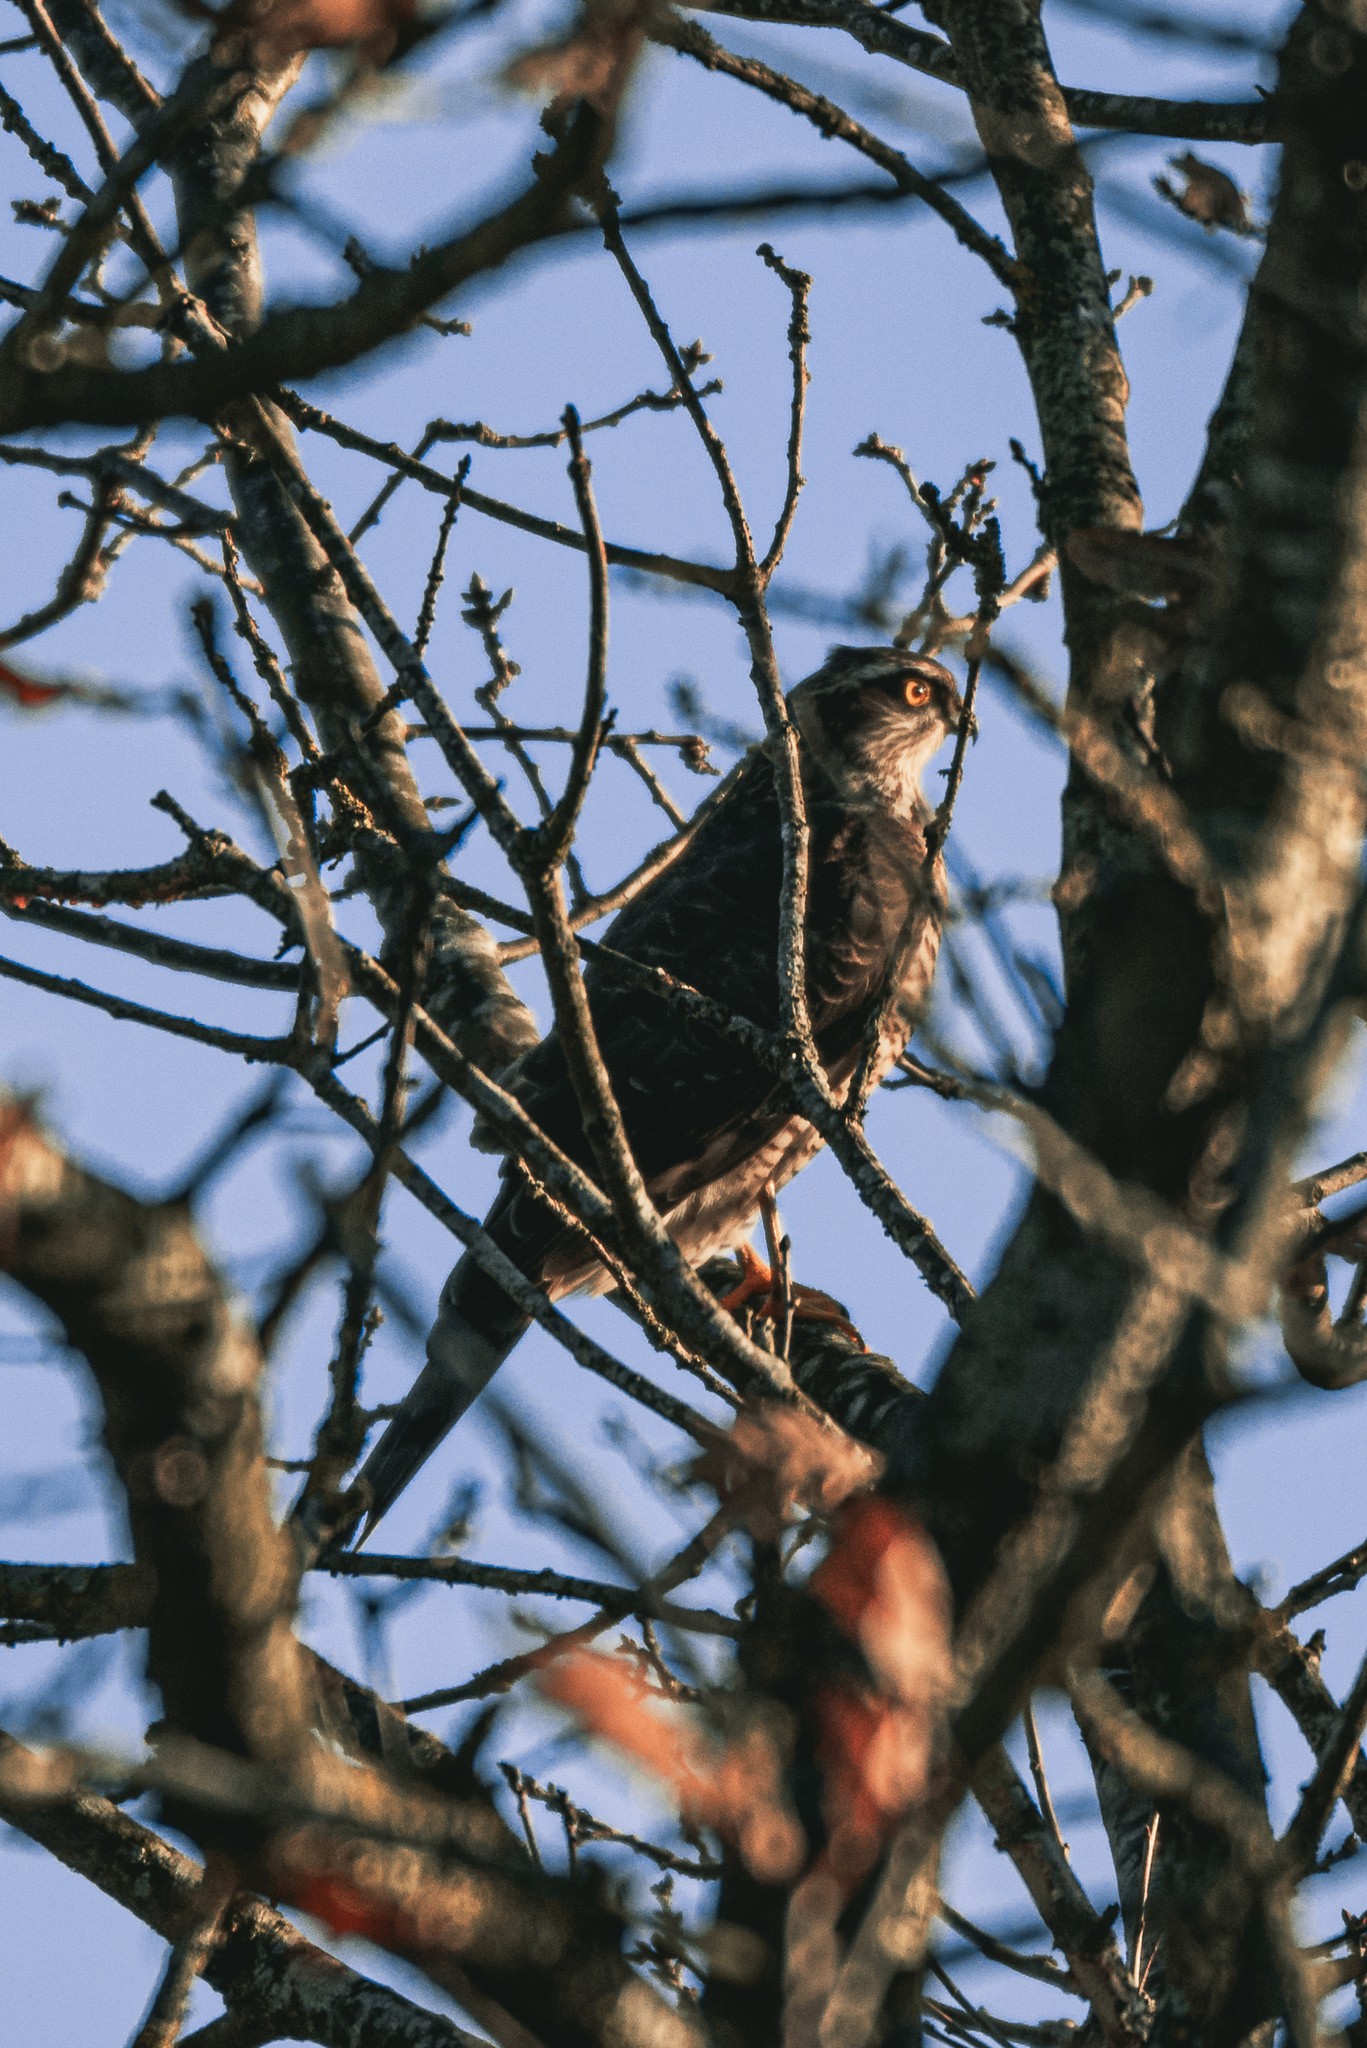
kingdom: Animalia
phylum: Chordata
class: Aves
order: Accipitriformes
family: Accipitridae
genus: Accipiter
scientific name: Accipiter nisus
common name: Eurasian sparrowhawk
